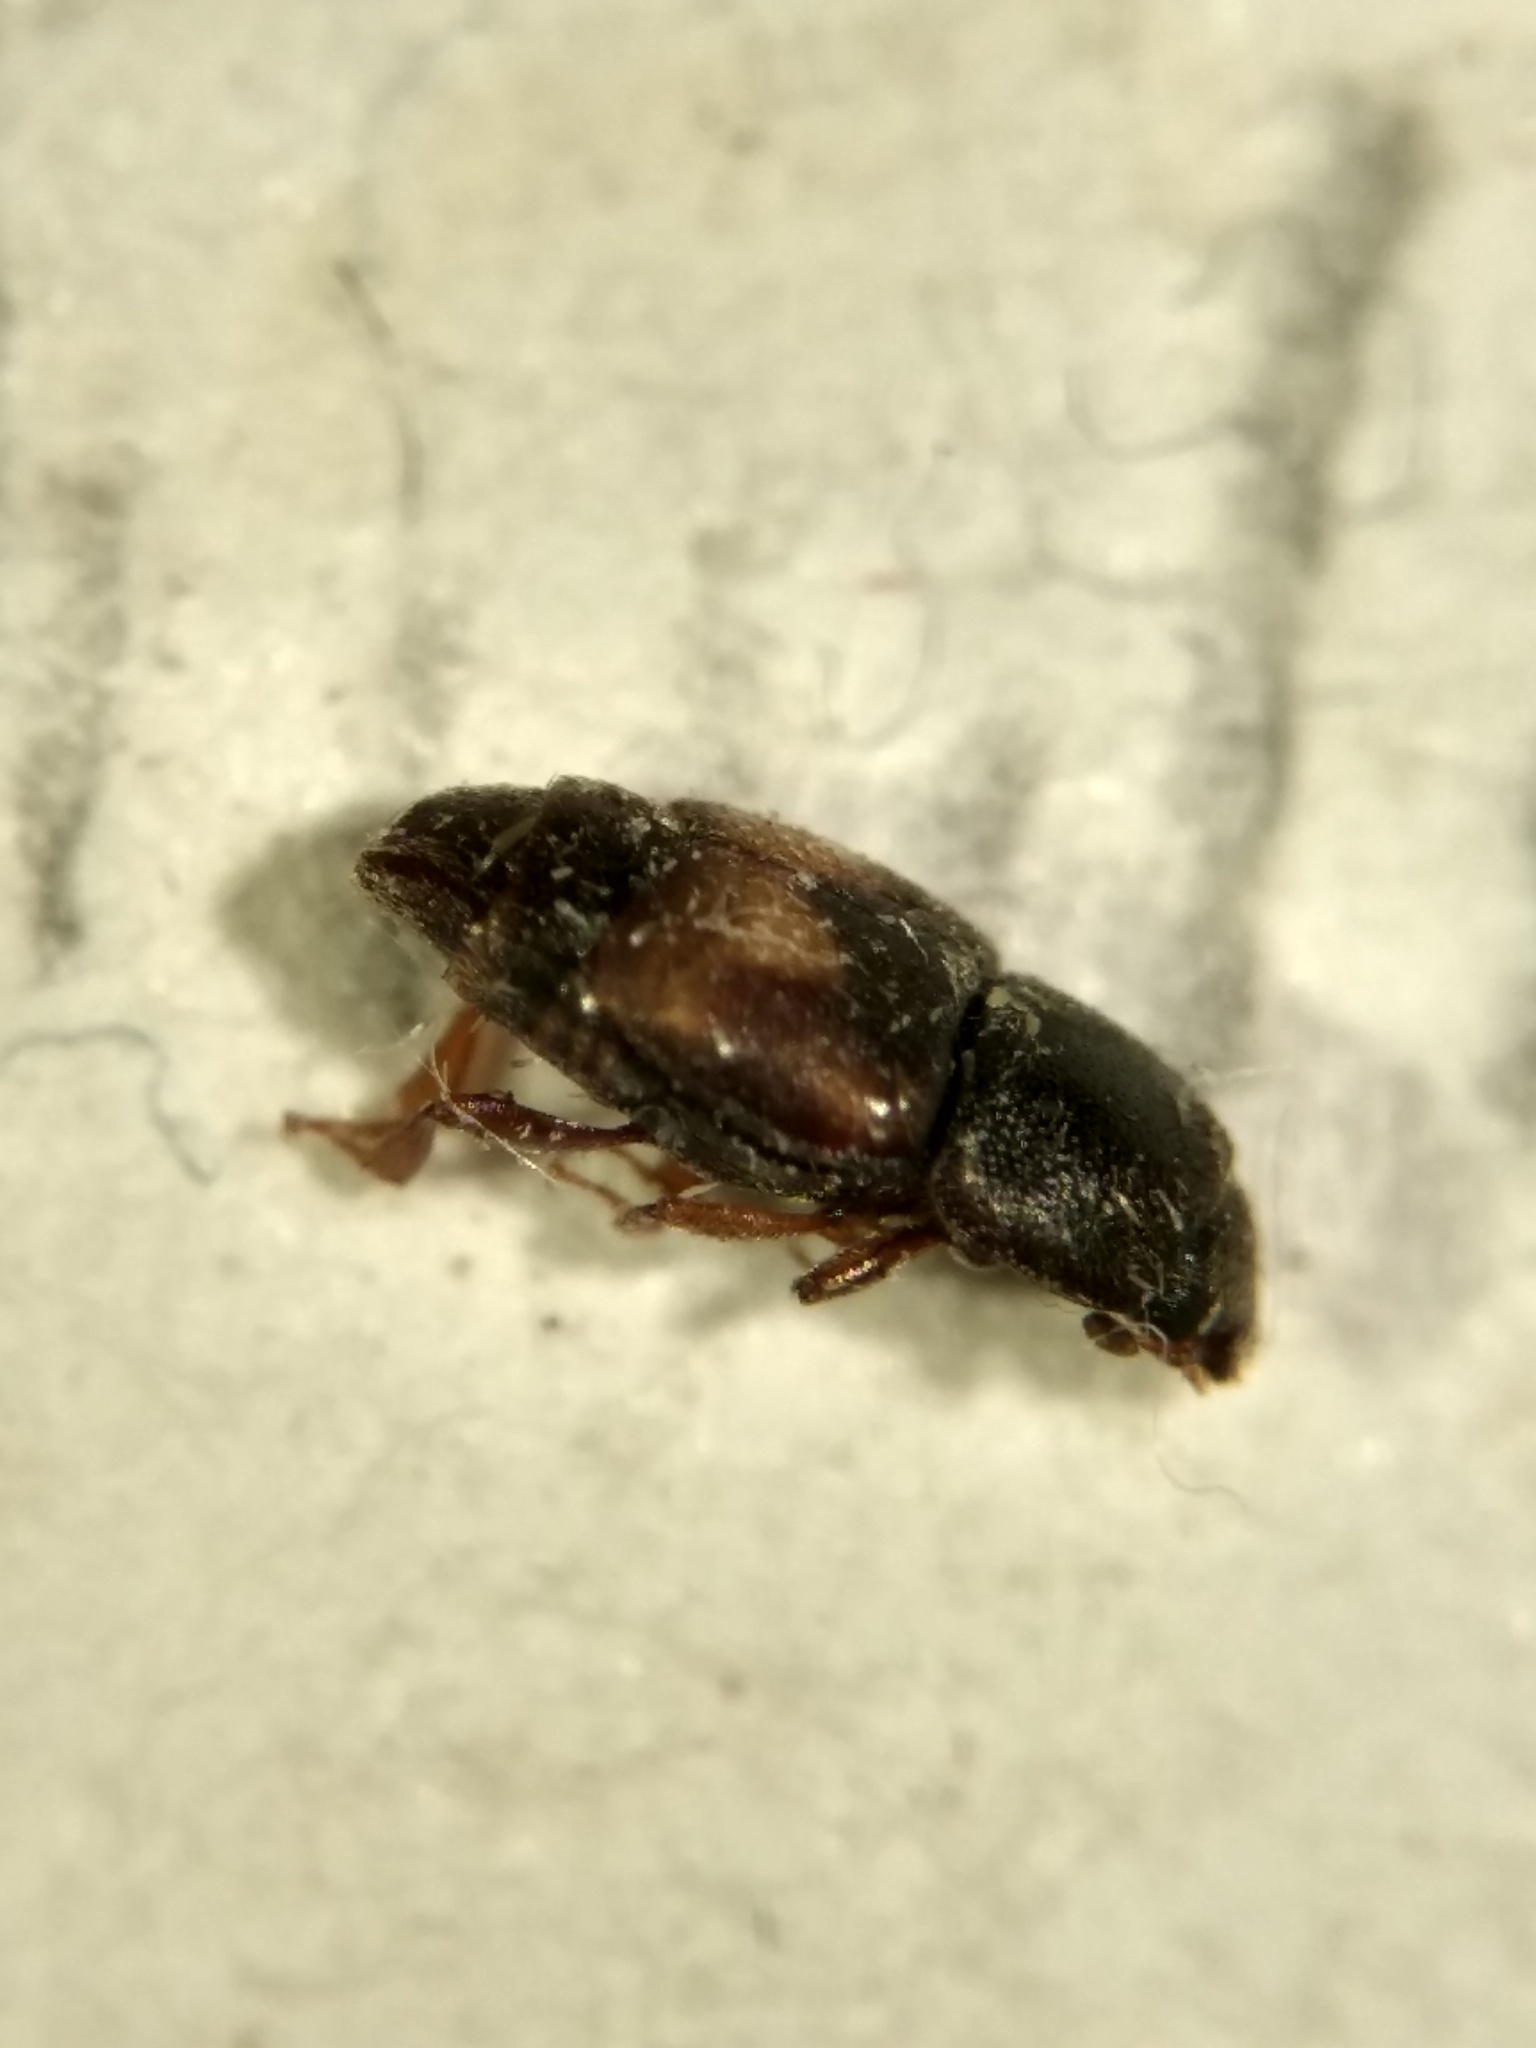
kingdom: Animalia
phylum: Arthropoda
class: Insecta
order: Coleoptera
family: Nitidulidae
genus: Carpophilus
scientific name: Carpophilus hemipterus
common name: Dried fruit beetle
